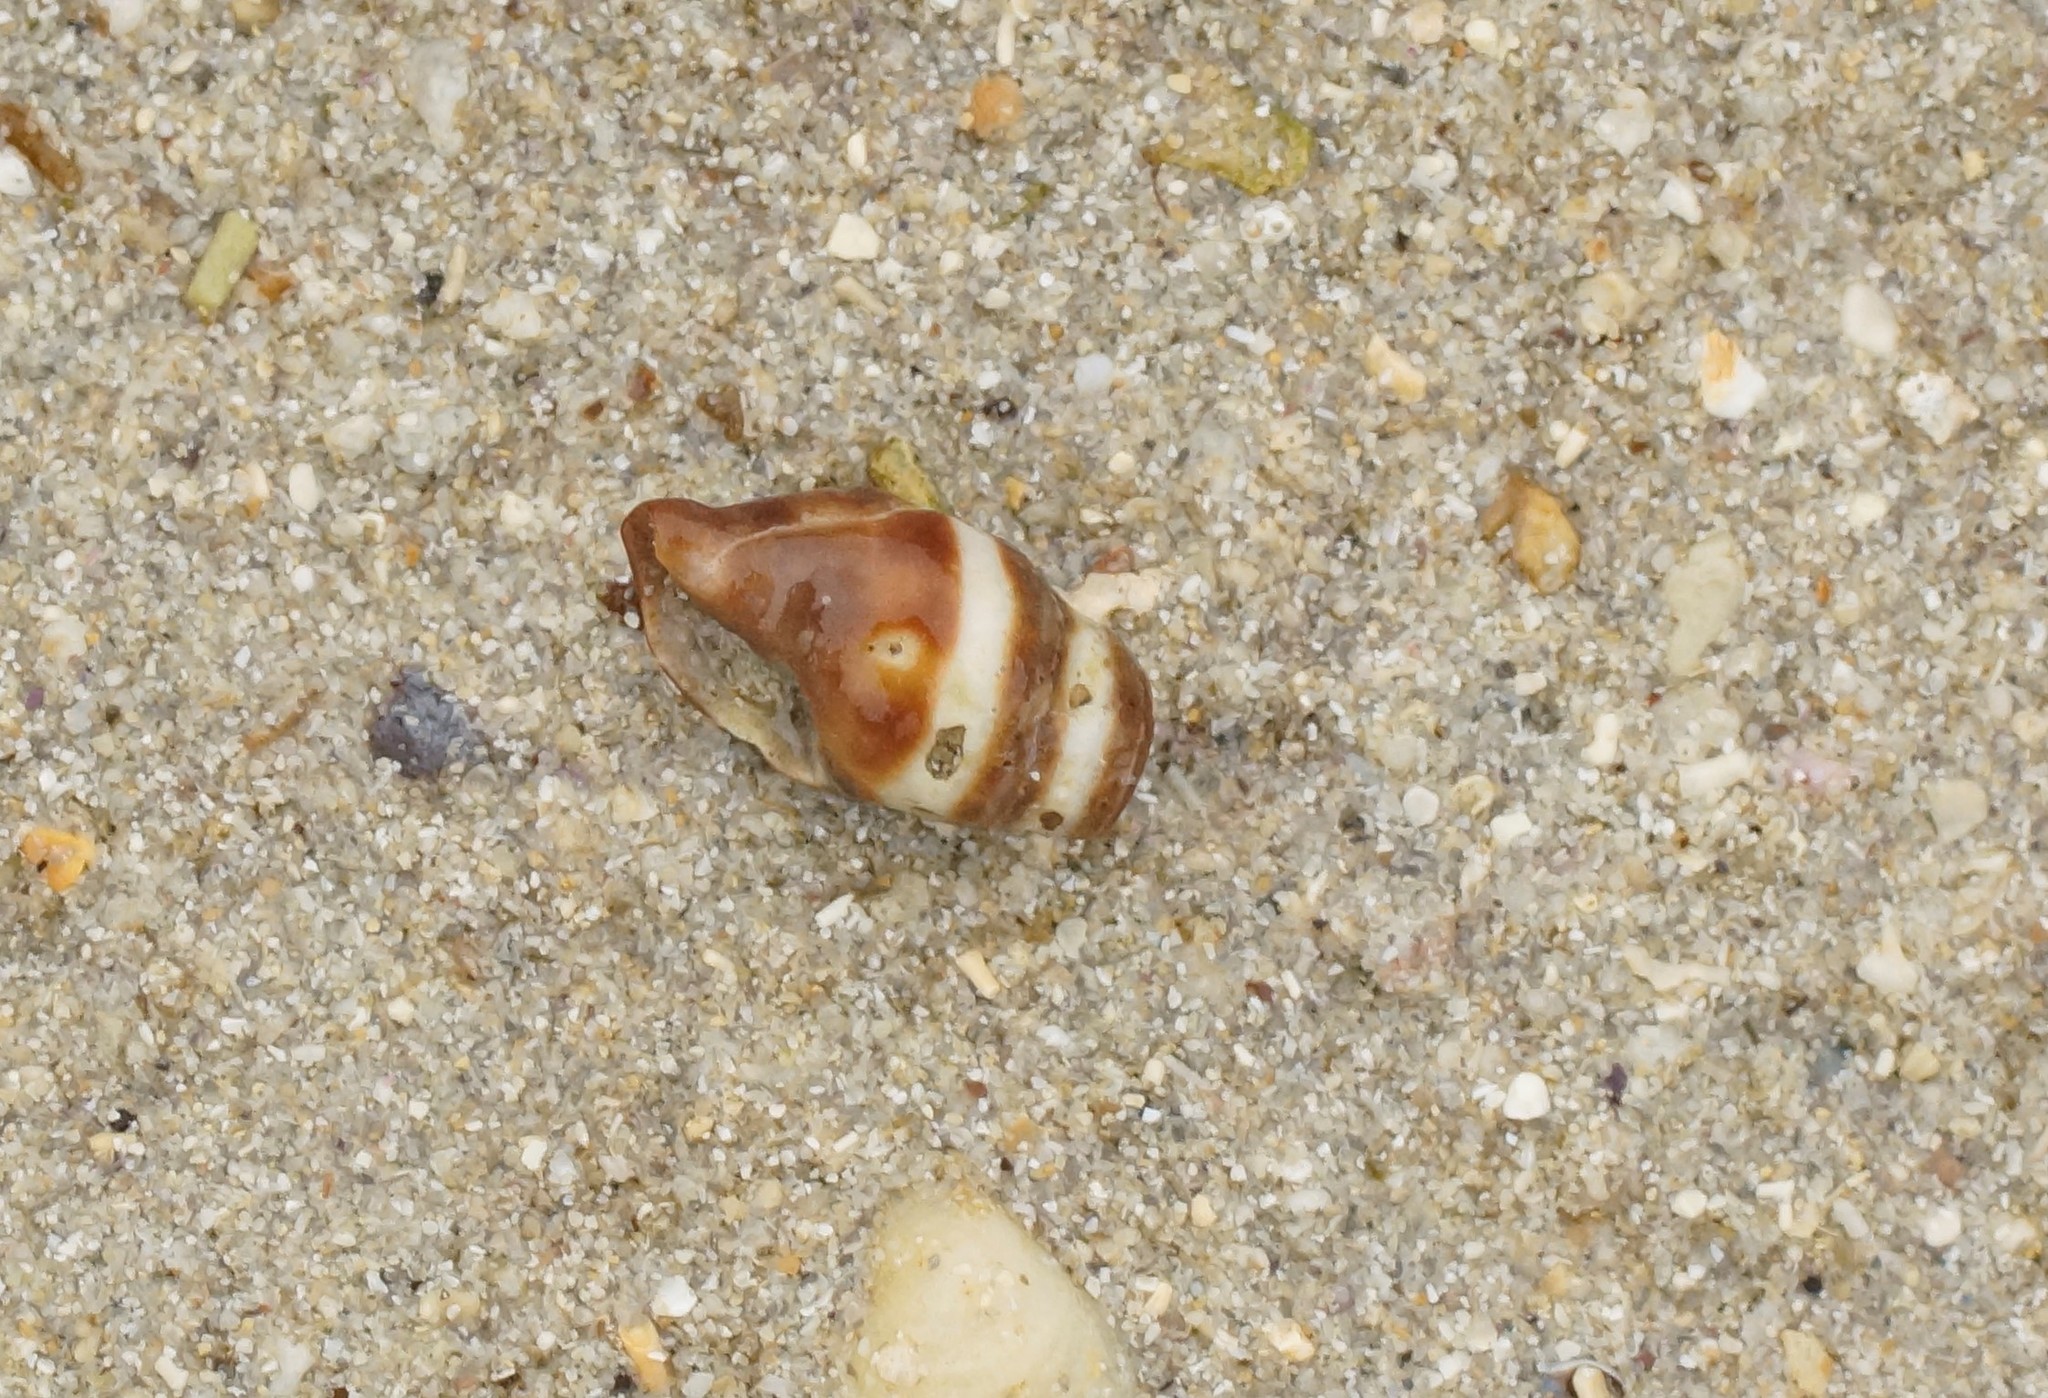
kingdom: Animalia
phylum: Mollusca
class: Gastropoda
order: Neogastropoda
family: Costellariidae
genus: Turriplicifer
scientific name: Turriplicifer australis
